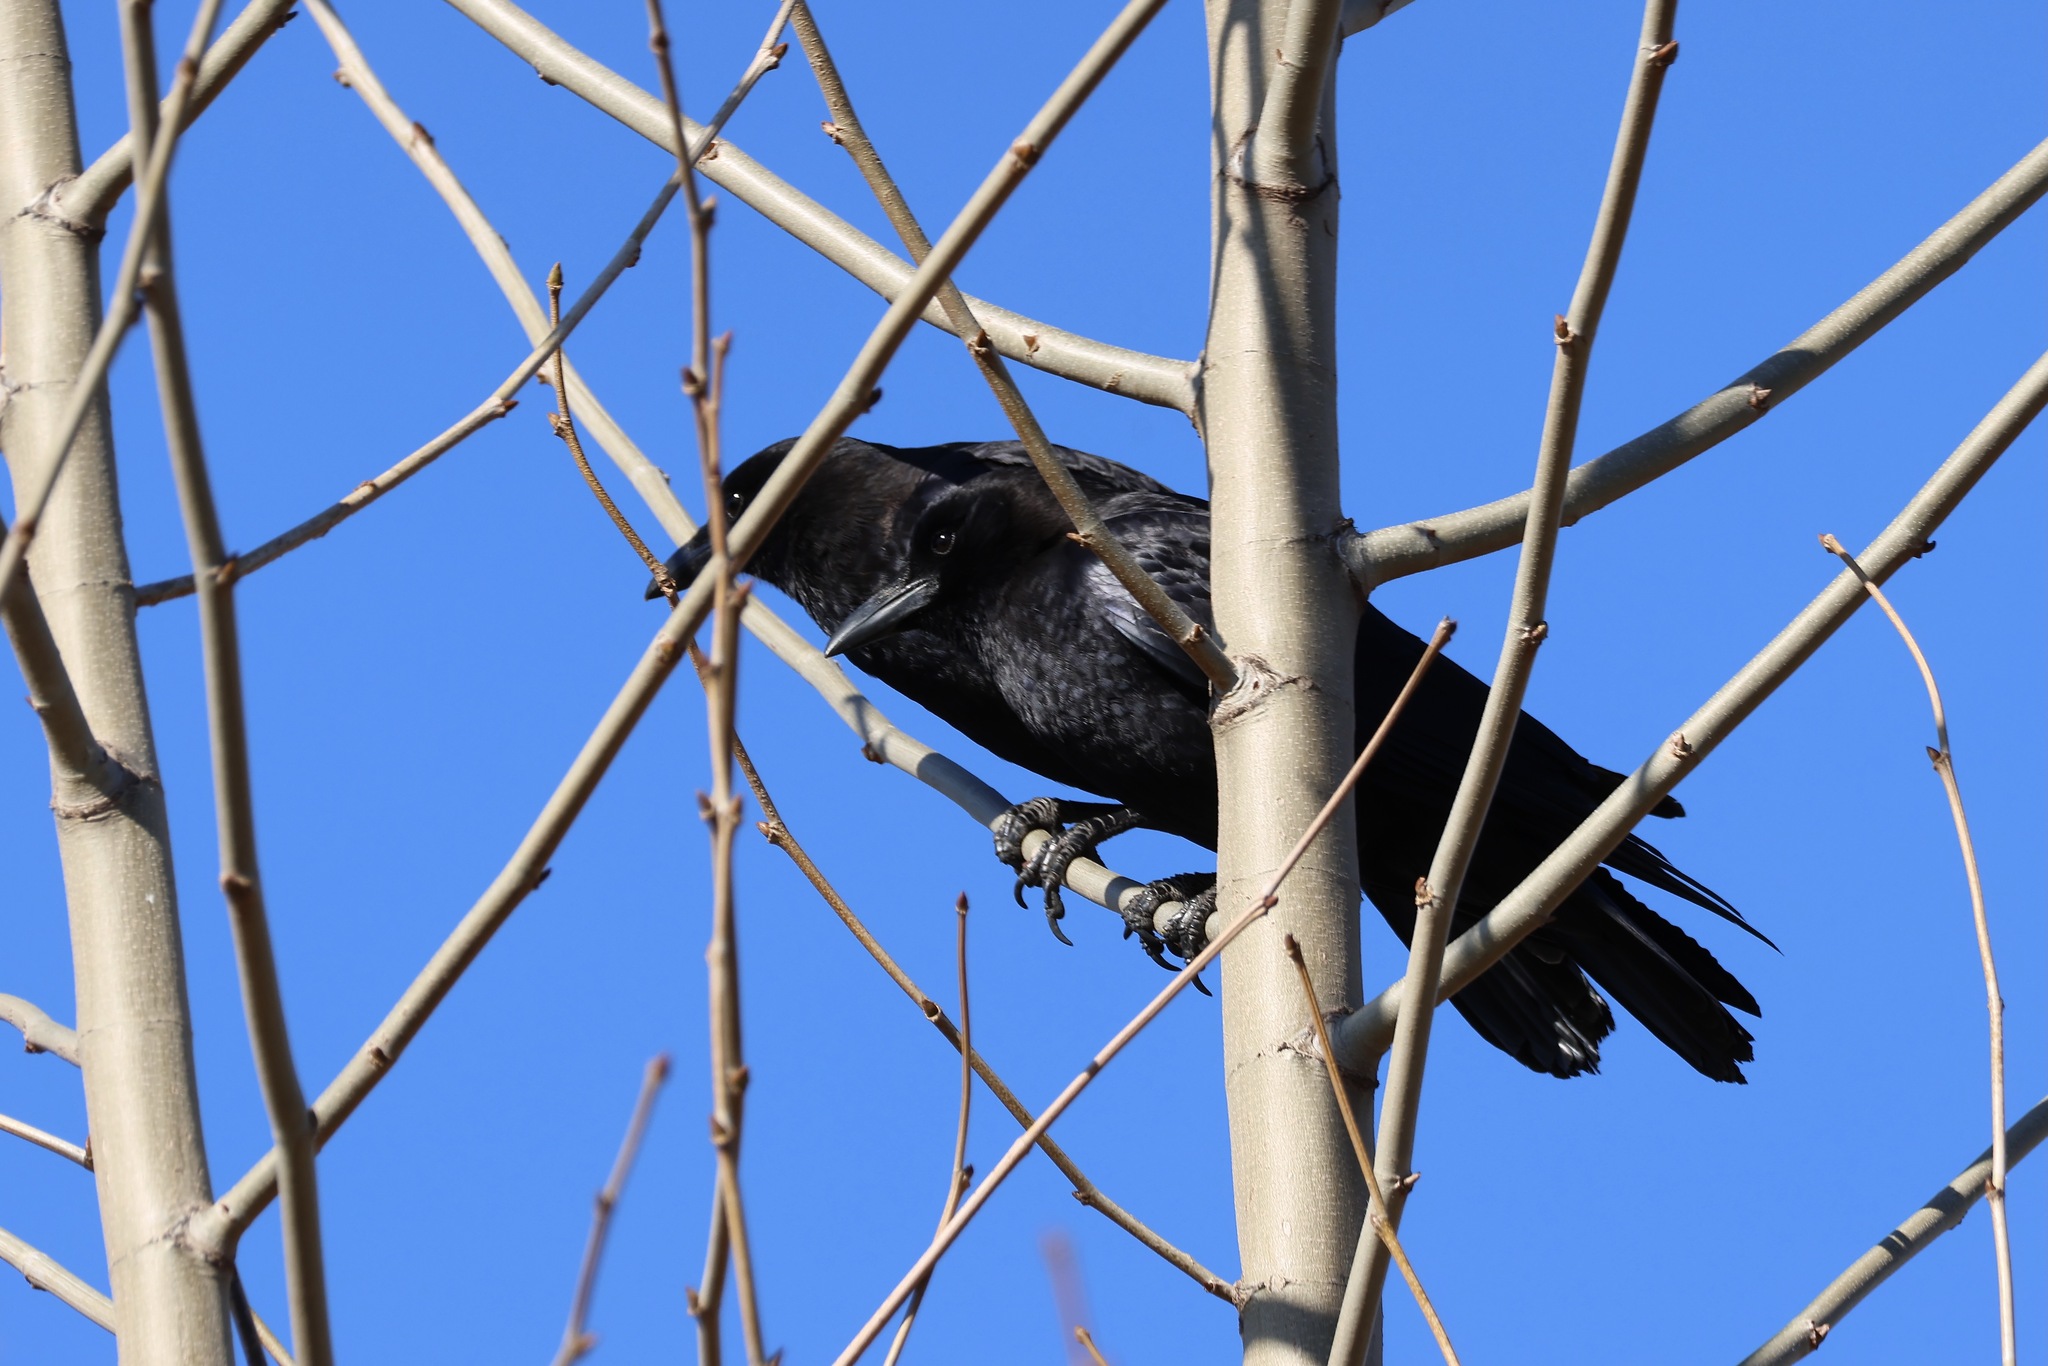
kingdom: Animalia
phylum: Chordata
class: Aves
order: Passeriformes
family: Corvidae
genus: Corvus
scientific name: Corvus brachyrhynchos
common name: American crow
